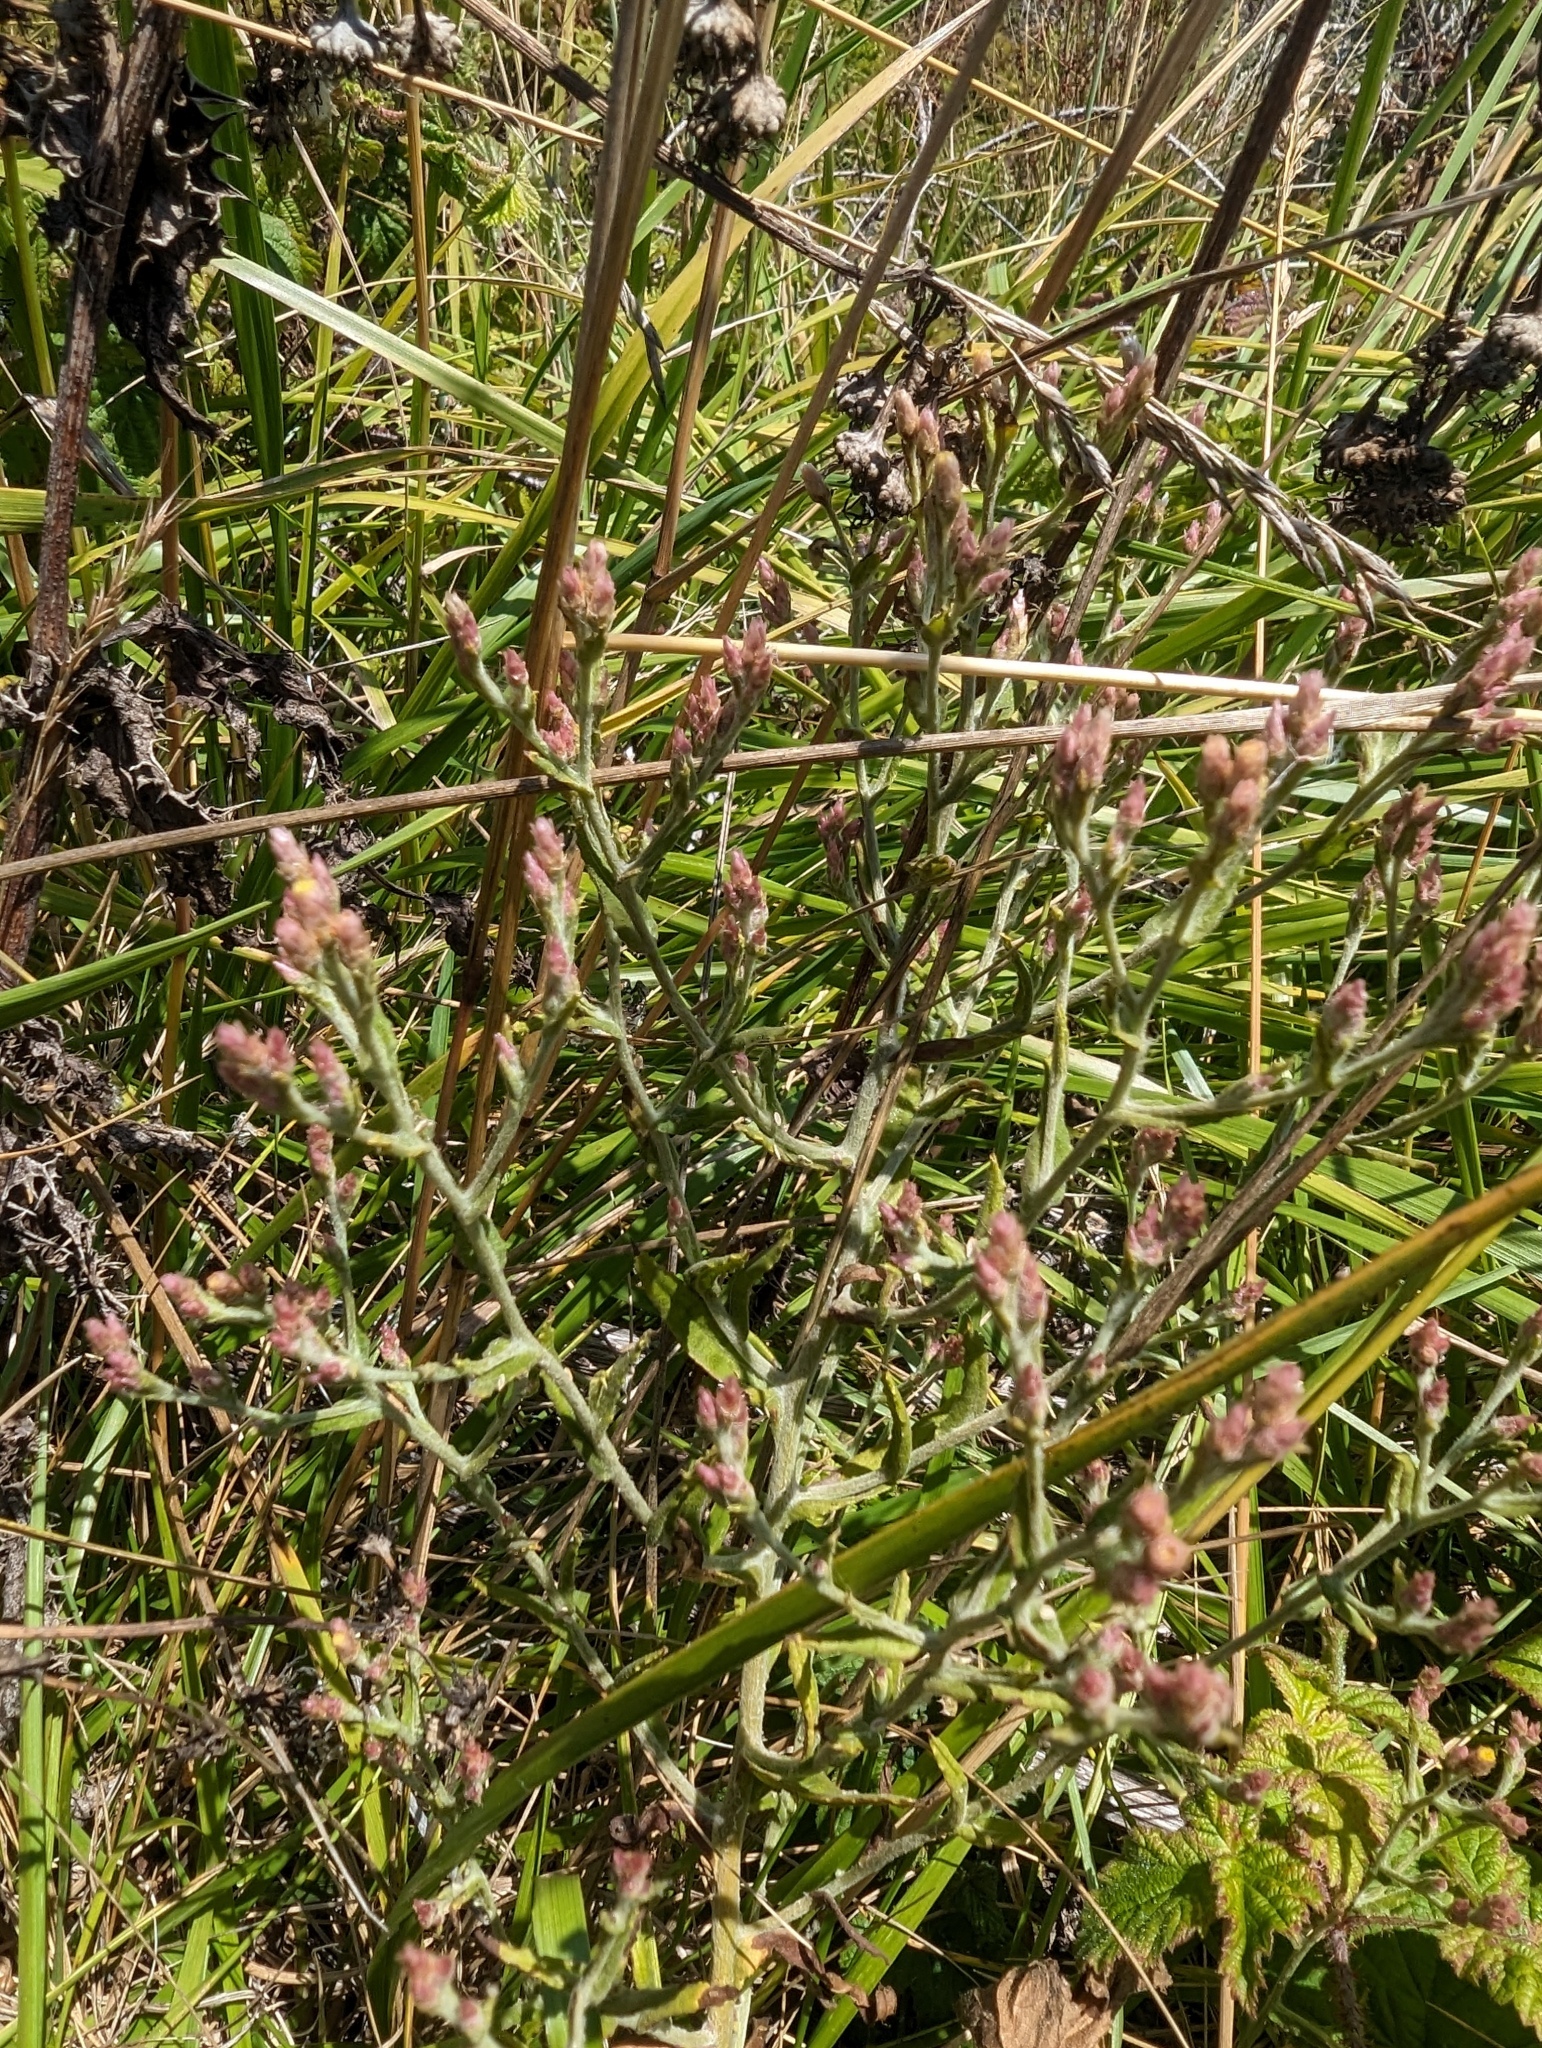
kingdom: Plantae
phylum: Tracheophyta
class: Magnoliopsida
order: Asterales
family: Asteraceae
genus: Pseudognaphalium
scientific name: Pseudognaphalium ramosissimum
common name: Pink rabbit-tobacco
